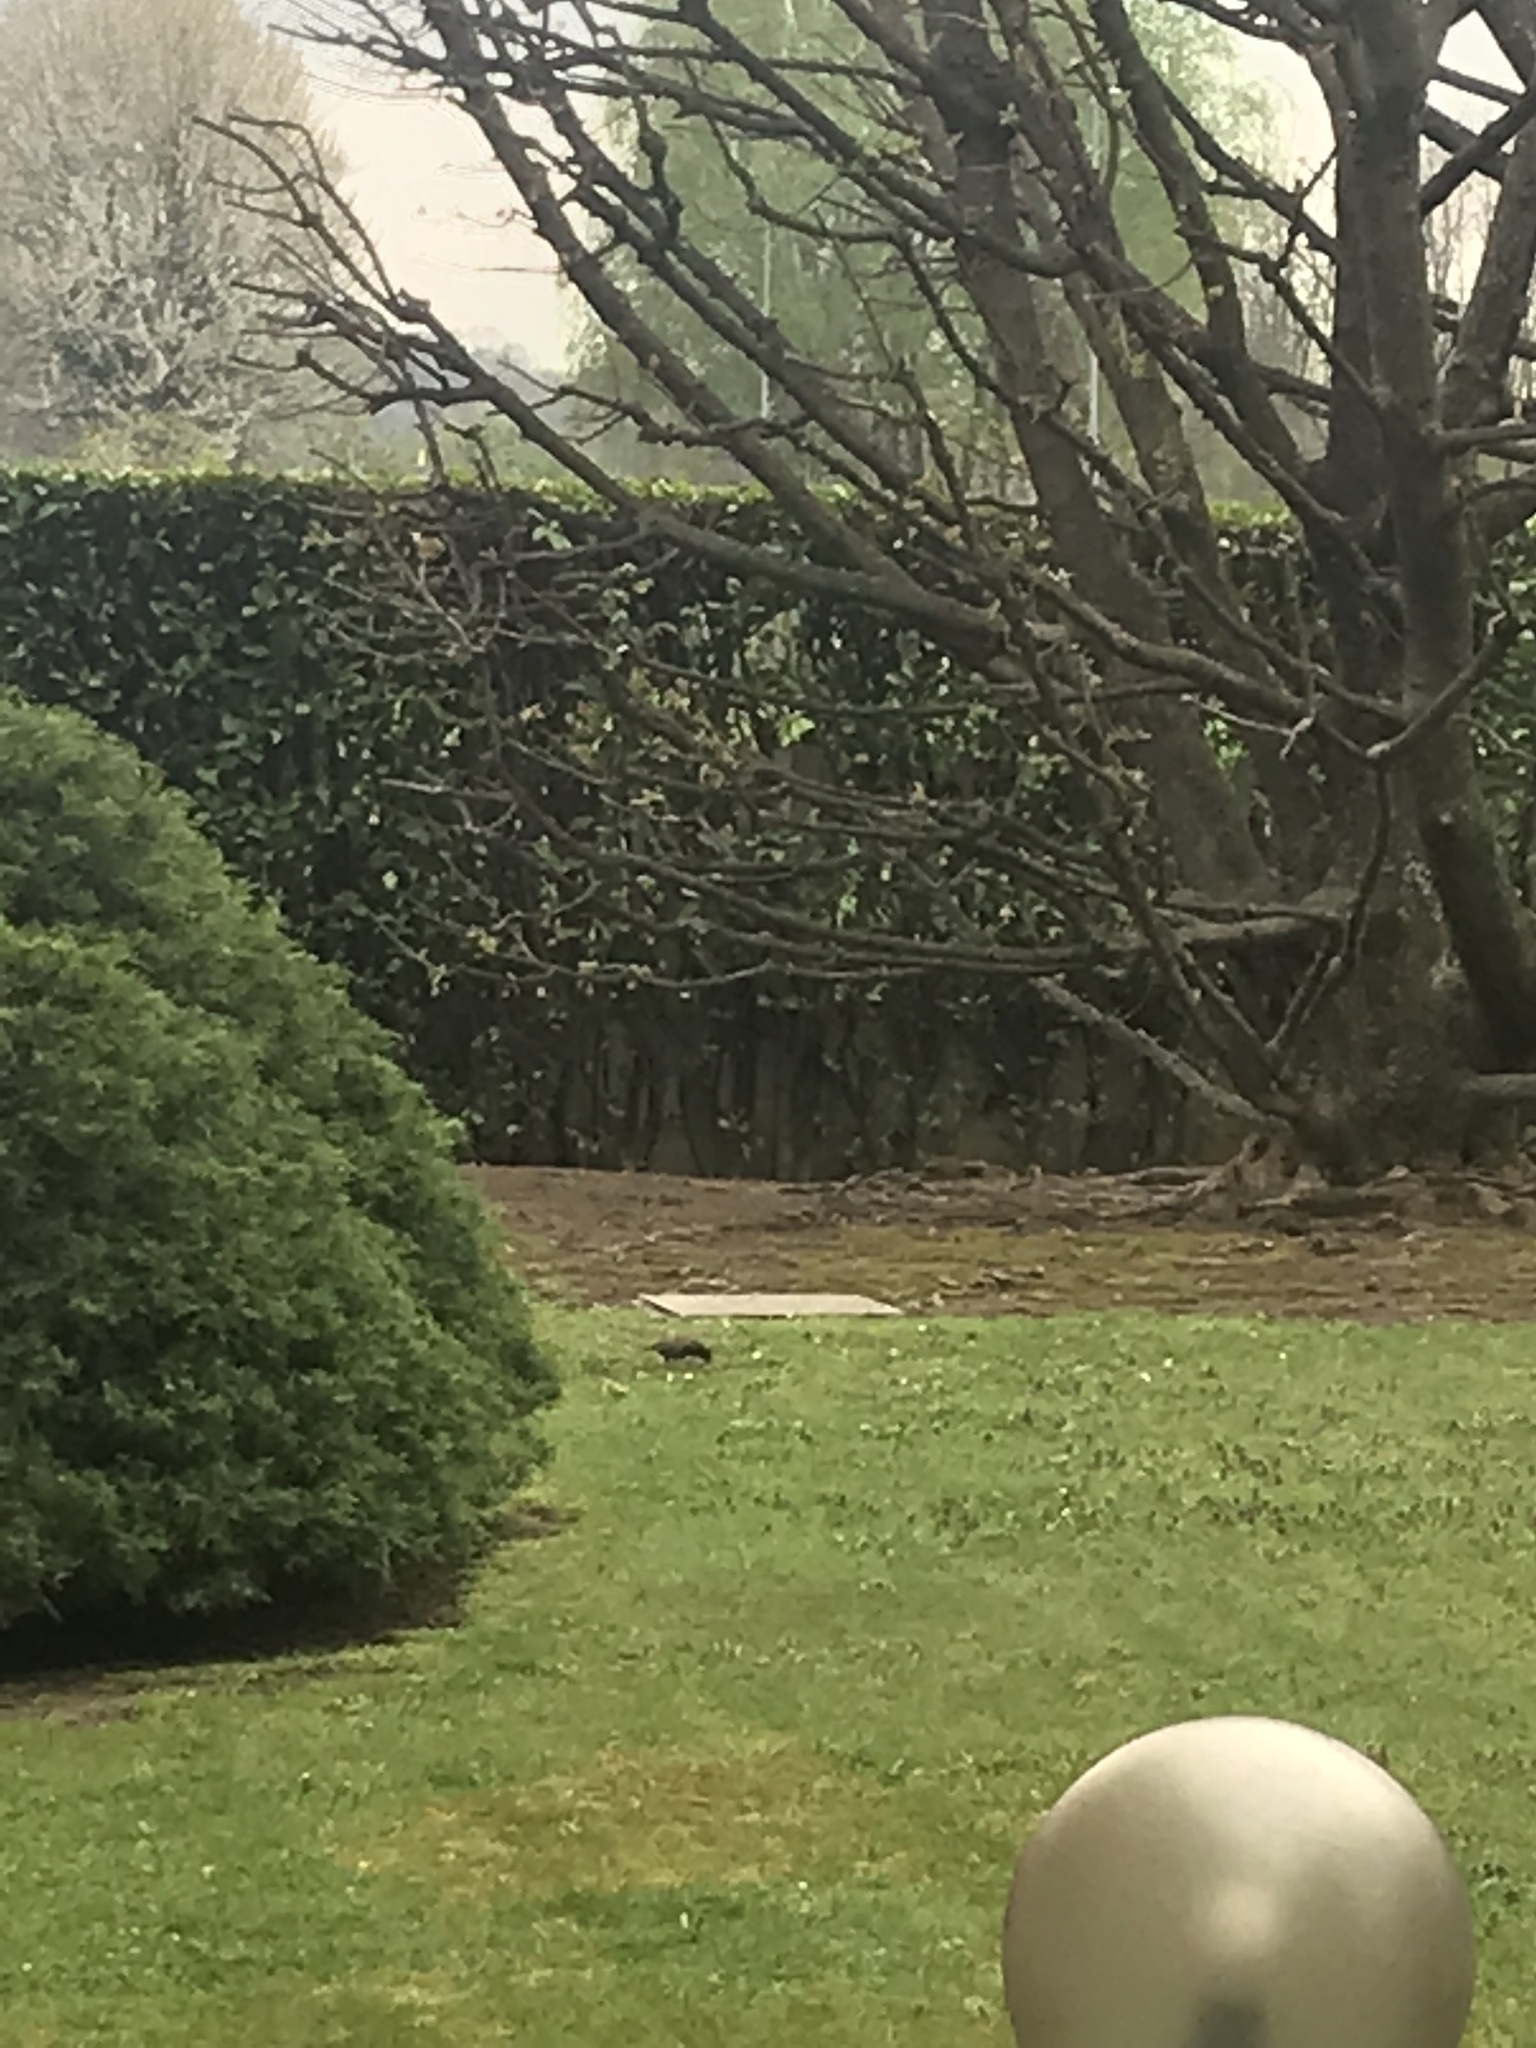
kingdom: Animalia
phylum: Chordata
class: Aves
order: Passeriformes
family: Sturnidae
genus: Sturnus
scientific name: Sturnus vulgaris
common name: Common starling
